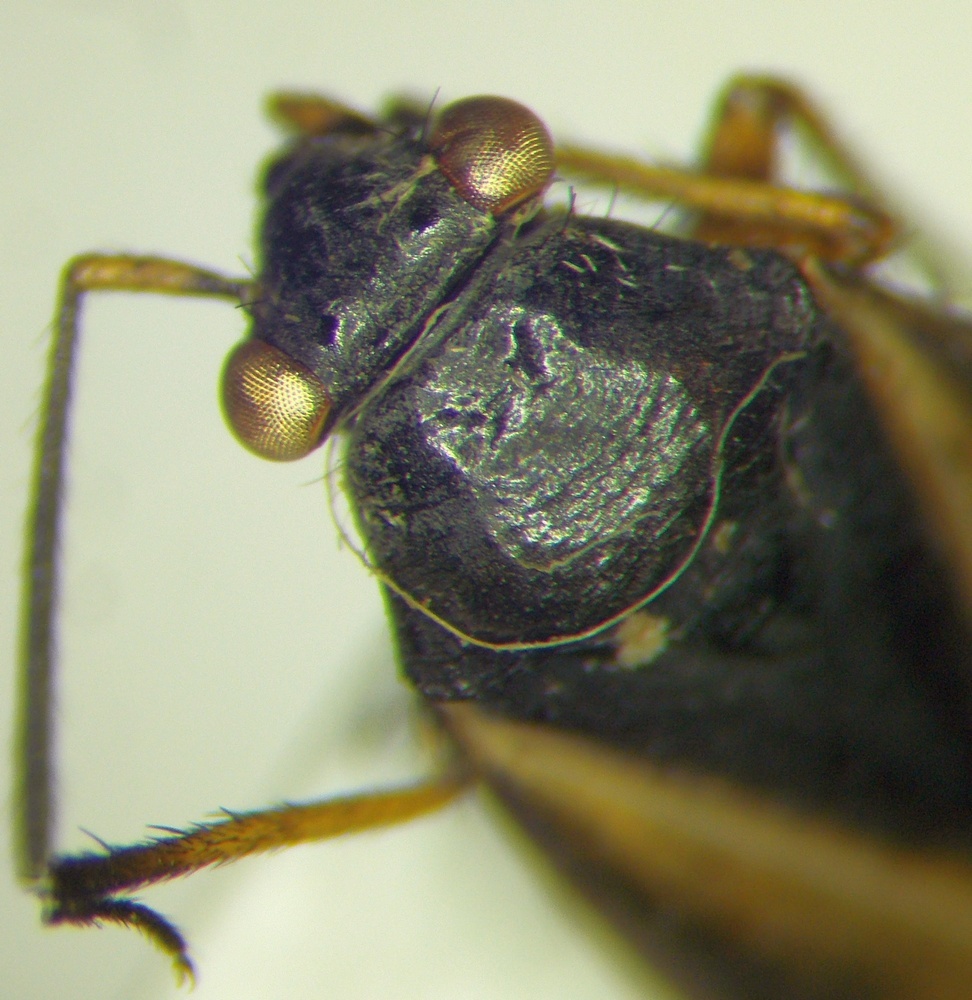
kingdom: Animalia
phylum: Arthropoda
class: Insecta
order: Hemiptera
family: Miridae
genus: Orthocephalus
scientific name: Orthocephalus vittipennis
